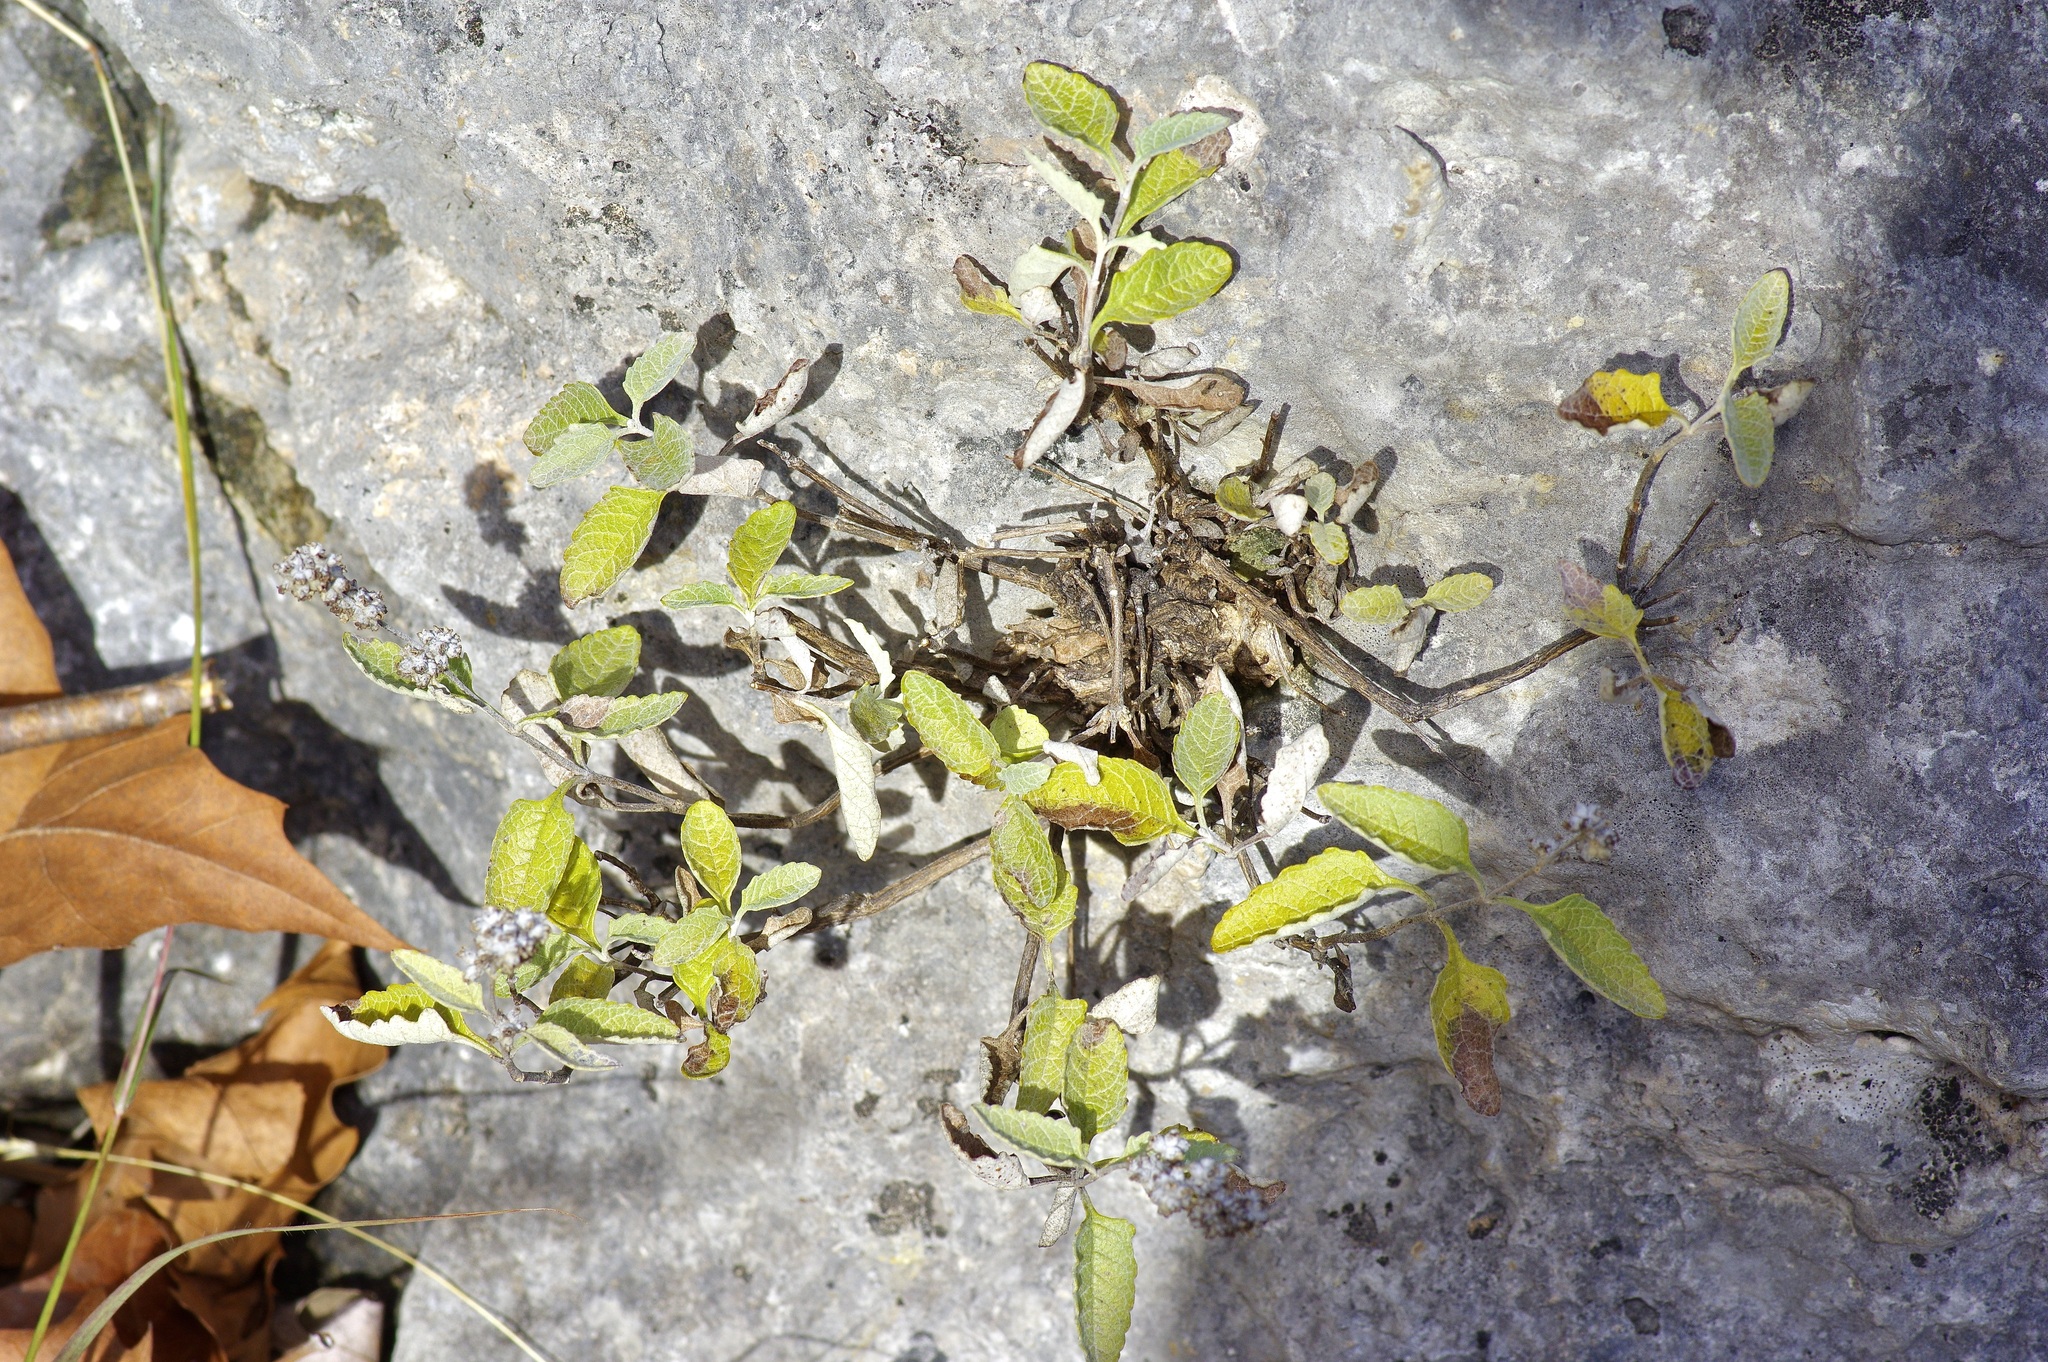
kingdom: Plantae
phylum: Tracheophyta
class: Magnoliopsida
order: Lamiales
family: Scrophulariaceae
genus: Buddleja
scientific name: Buddleja racemosa
